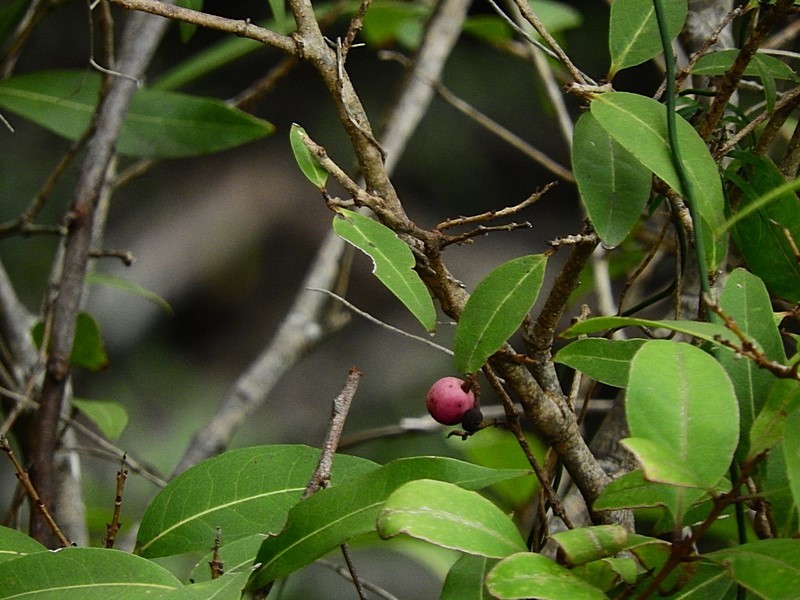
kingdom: Plantae
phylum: Tracheophyta
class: Magnoliopsida
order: Lamiales
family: Oleaceae
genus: Notelaea
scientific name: Notelaea venosa
